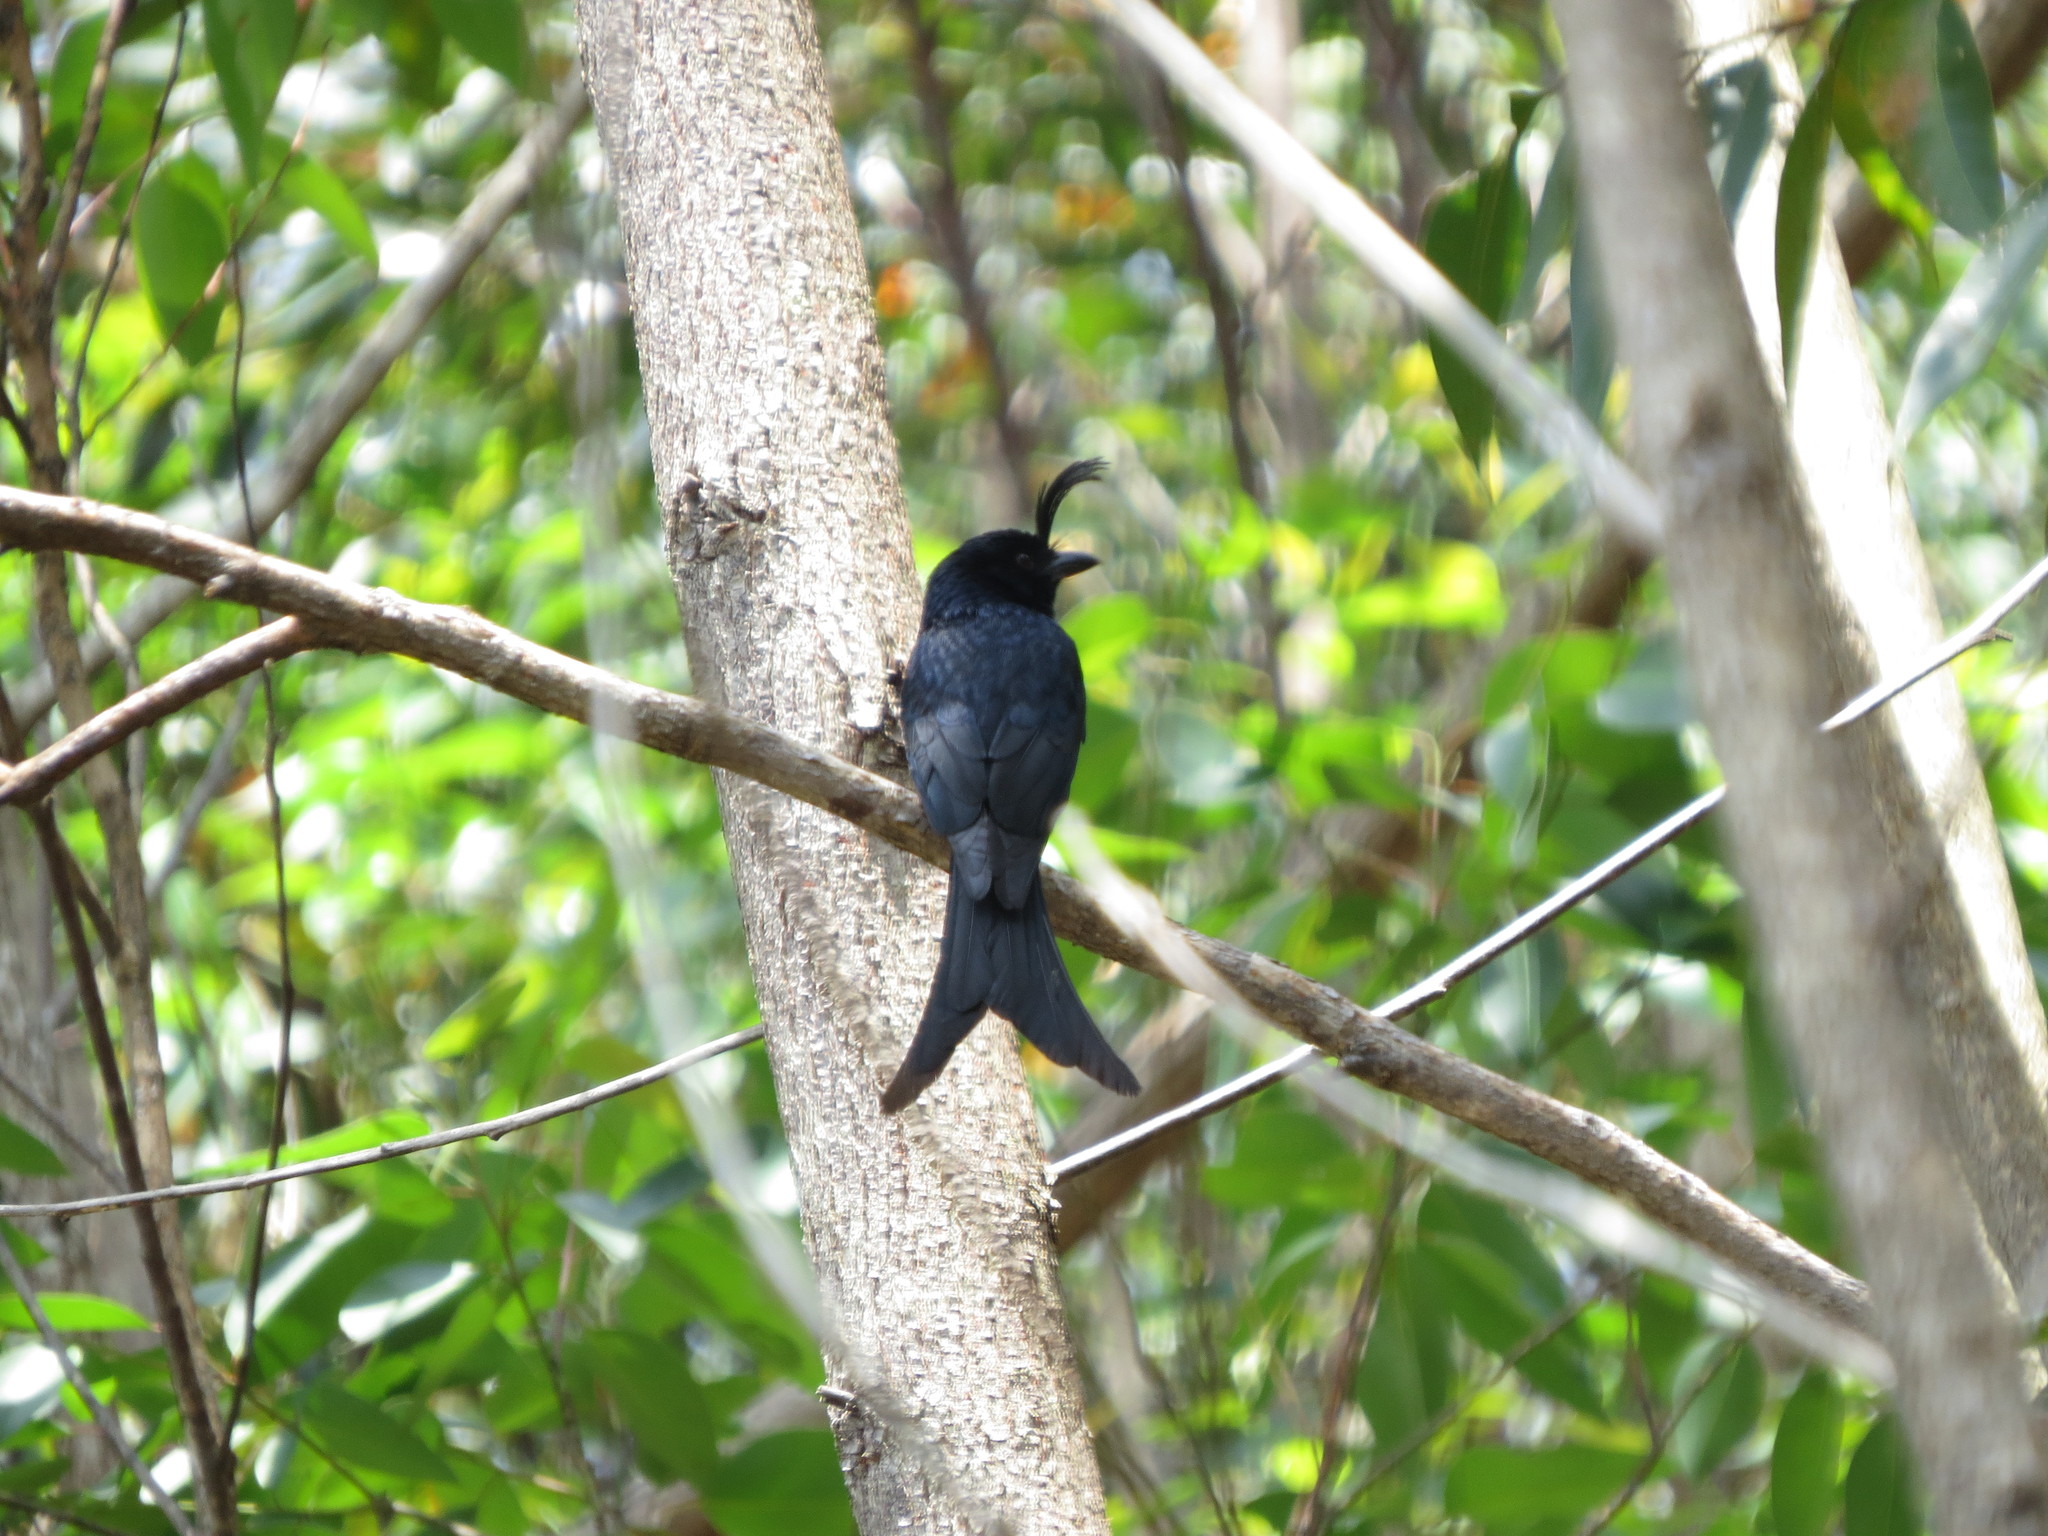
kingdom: Animalia
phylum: Chordata
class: Aves
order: Passeriformes
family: Dicruridae
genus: Dicrurus
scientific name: Dicrurus forficatus
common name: Crested drongo
